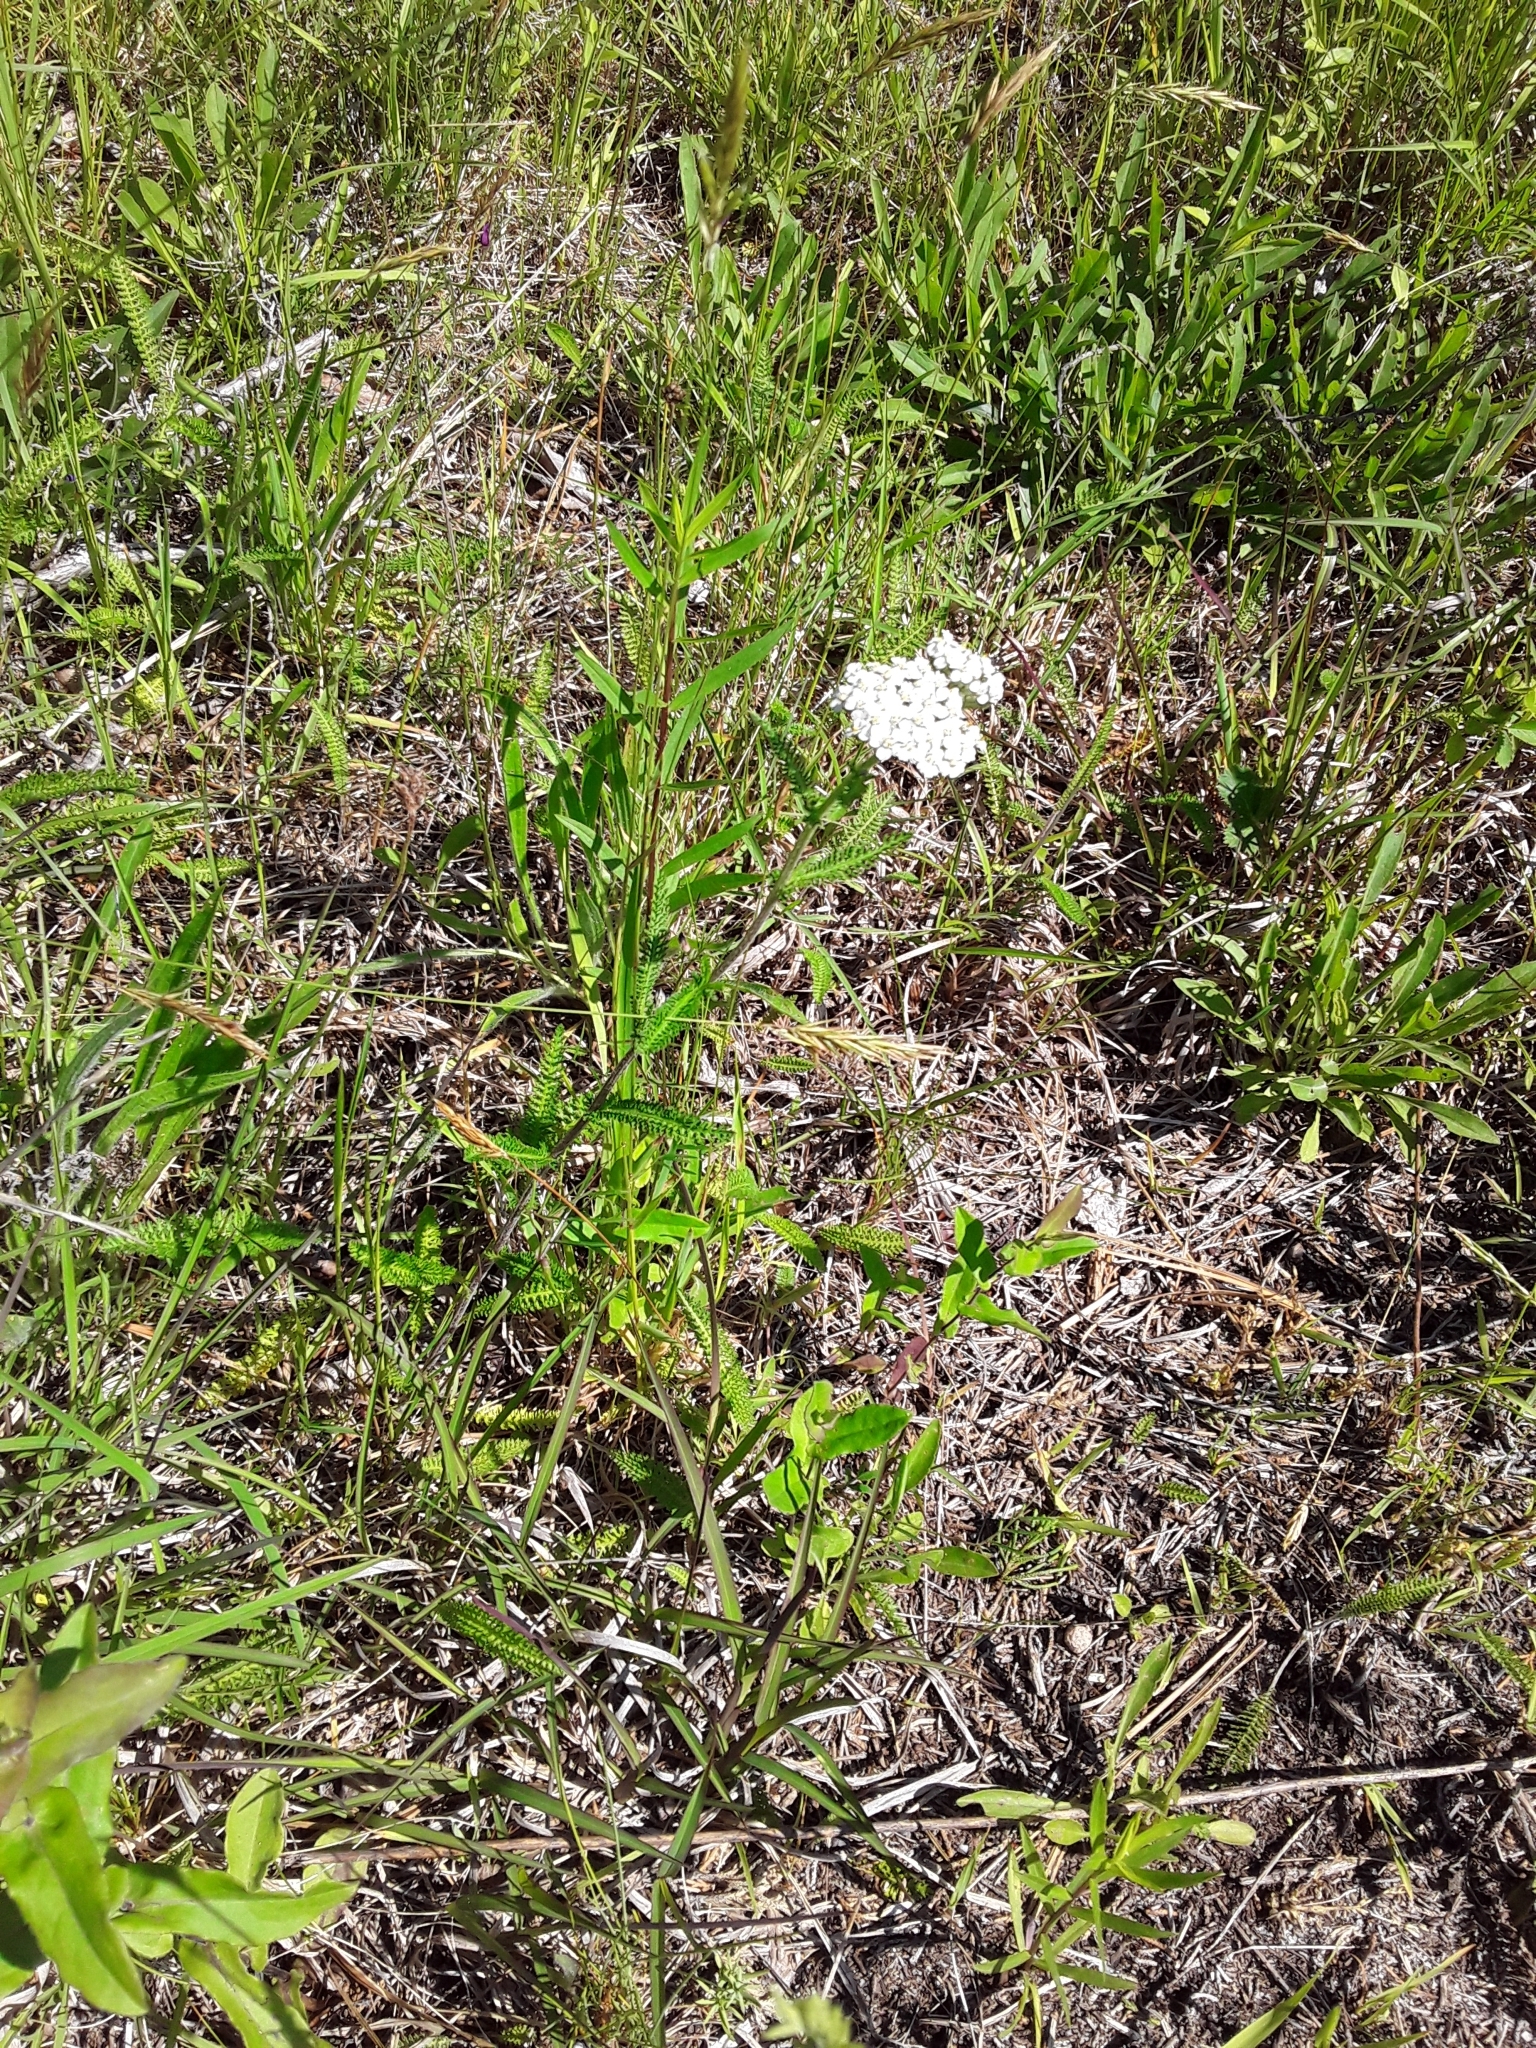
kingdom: Plantae
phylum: Tracheophyta
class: Magnoliopsida
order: Asterales
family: Asteraceae
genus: Achillea
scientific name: Achillea millefolium
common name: Yarrow
